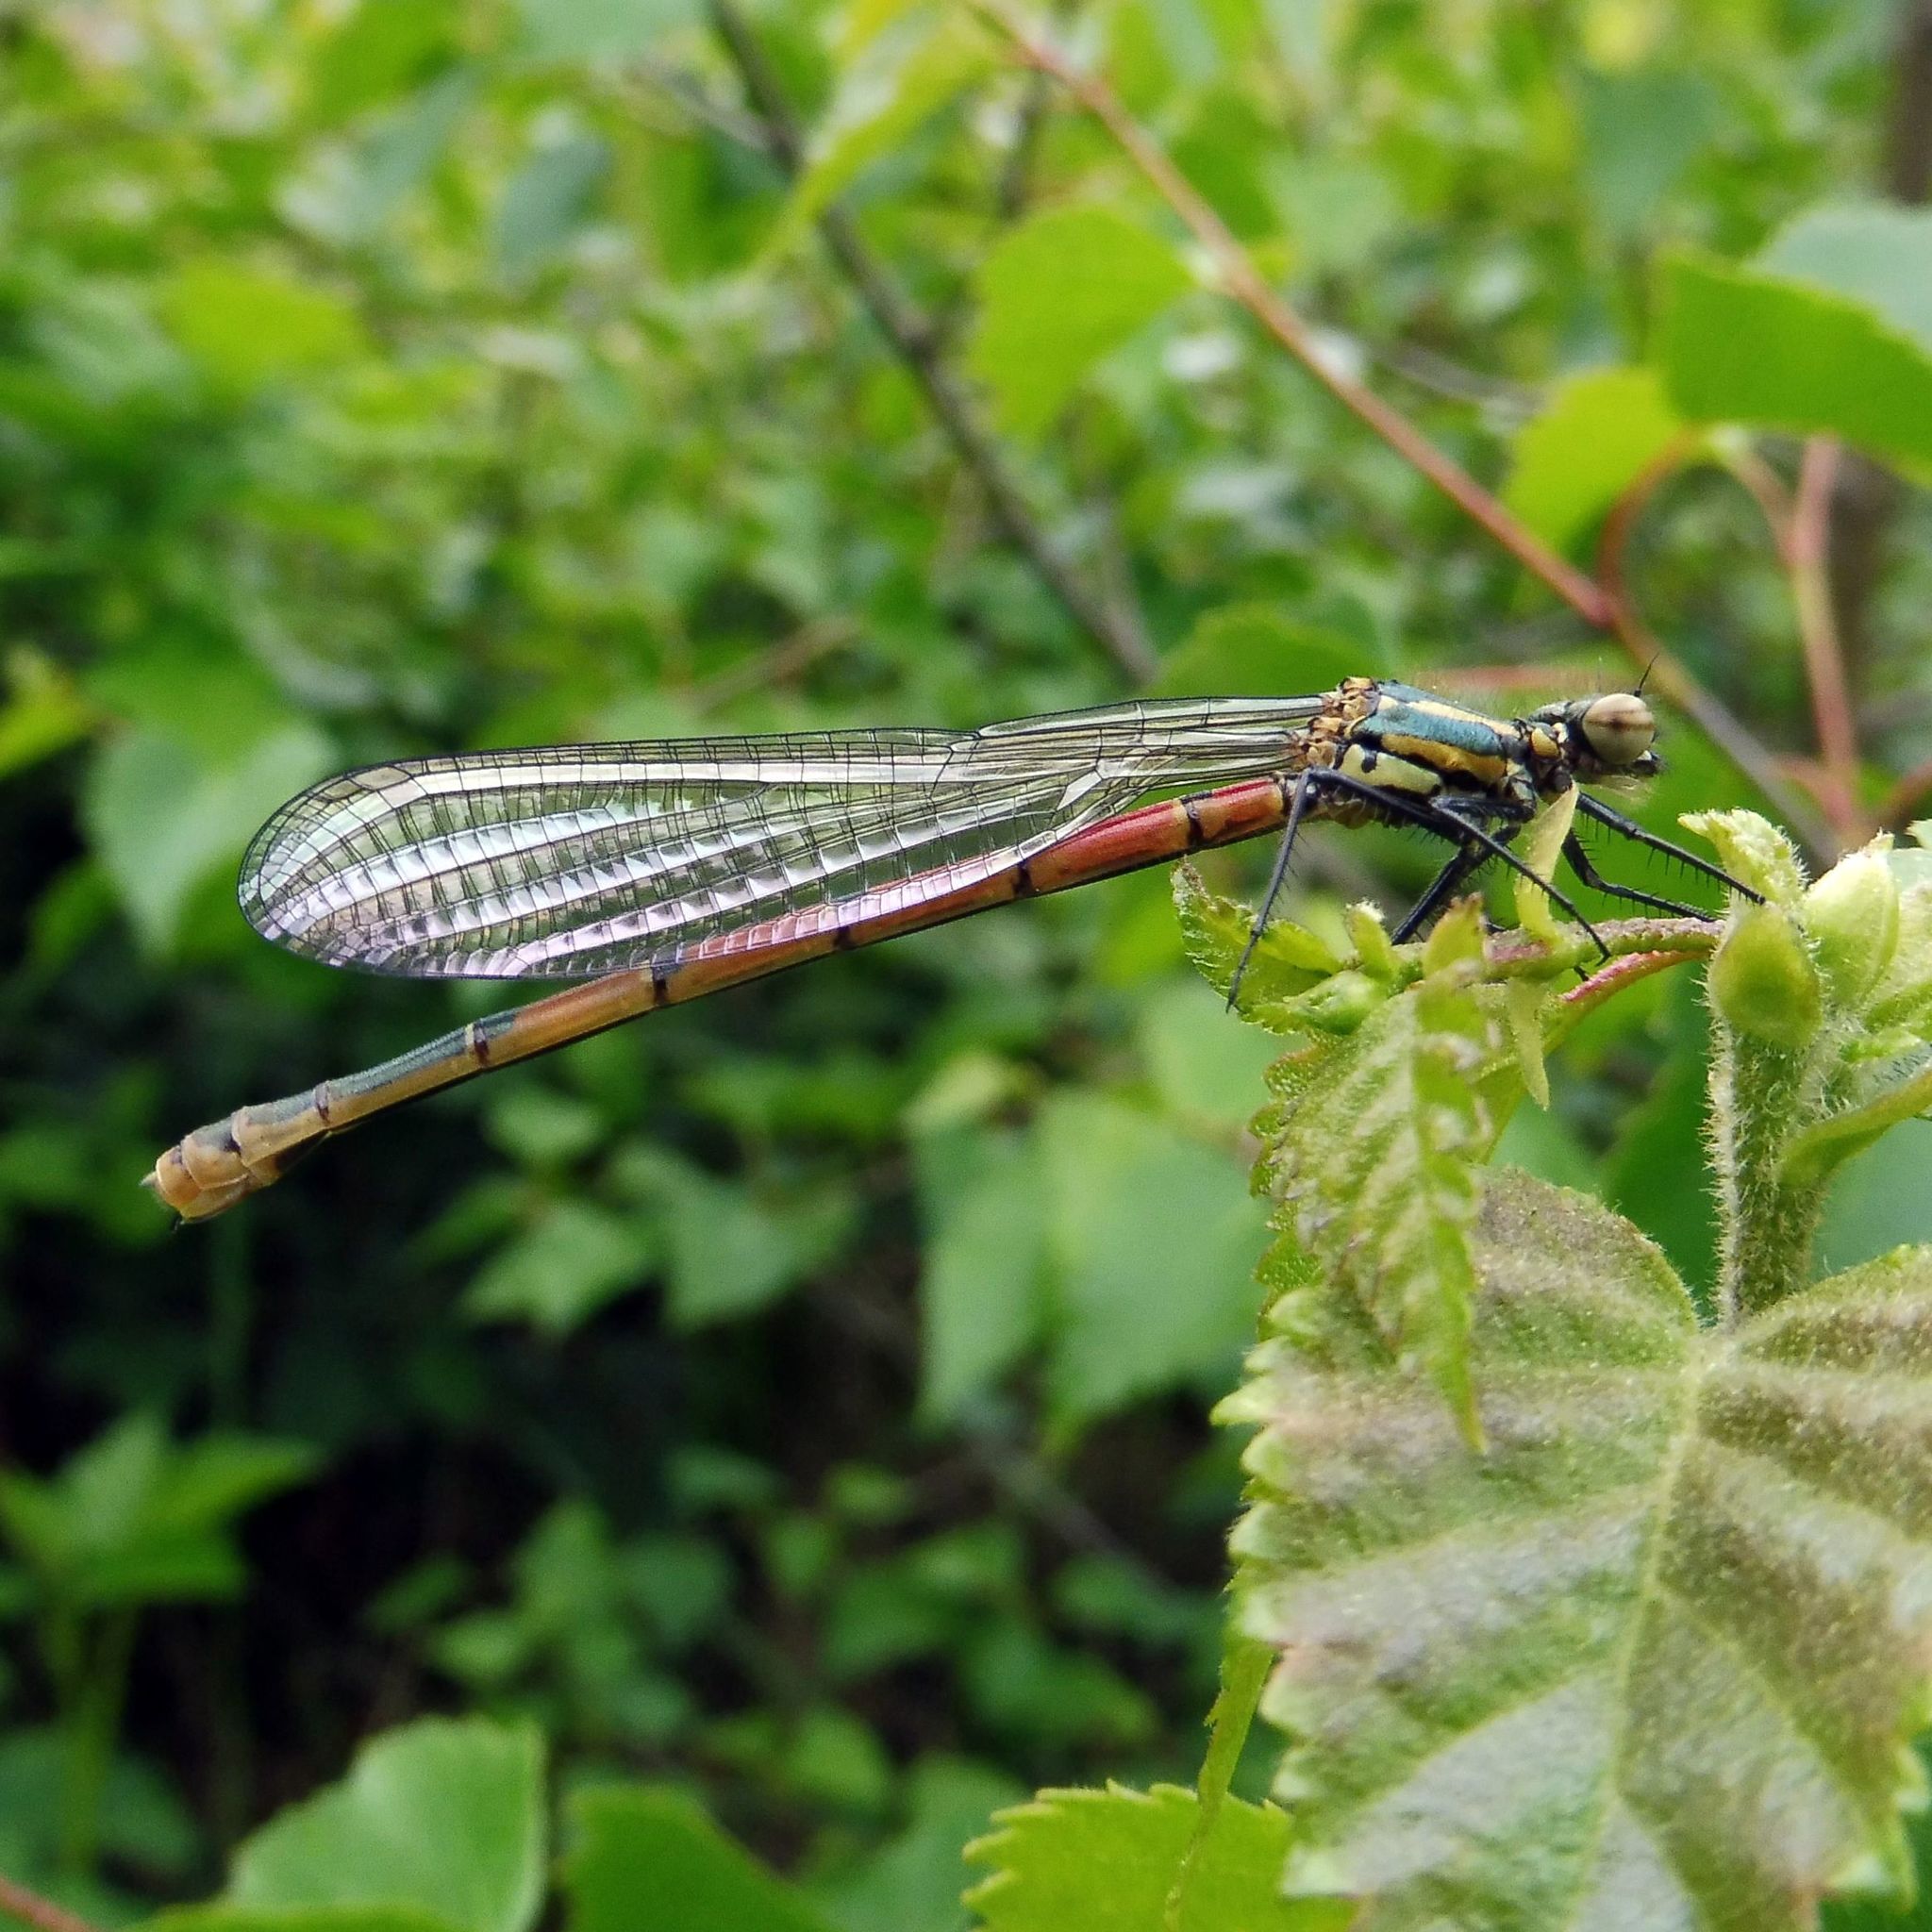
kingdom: Animalia
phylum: Arthropoda
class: Insecta
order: Odonata
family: Coenagrionidae
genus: Pyrrhosoma
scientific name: Pyrrhosoma nymphula
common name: Large red damsel
